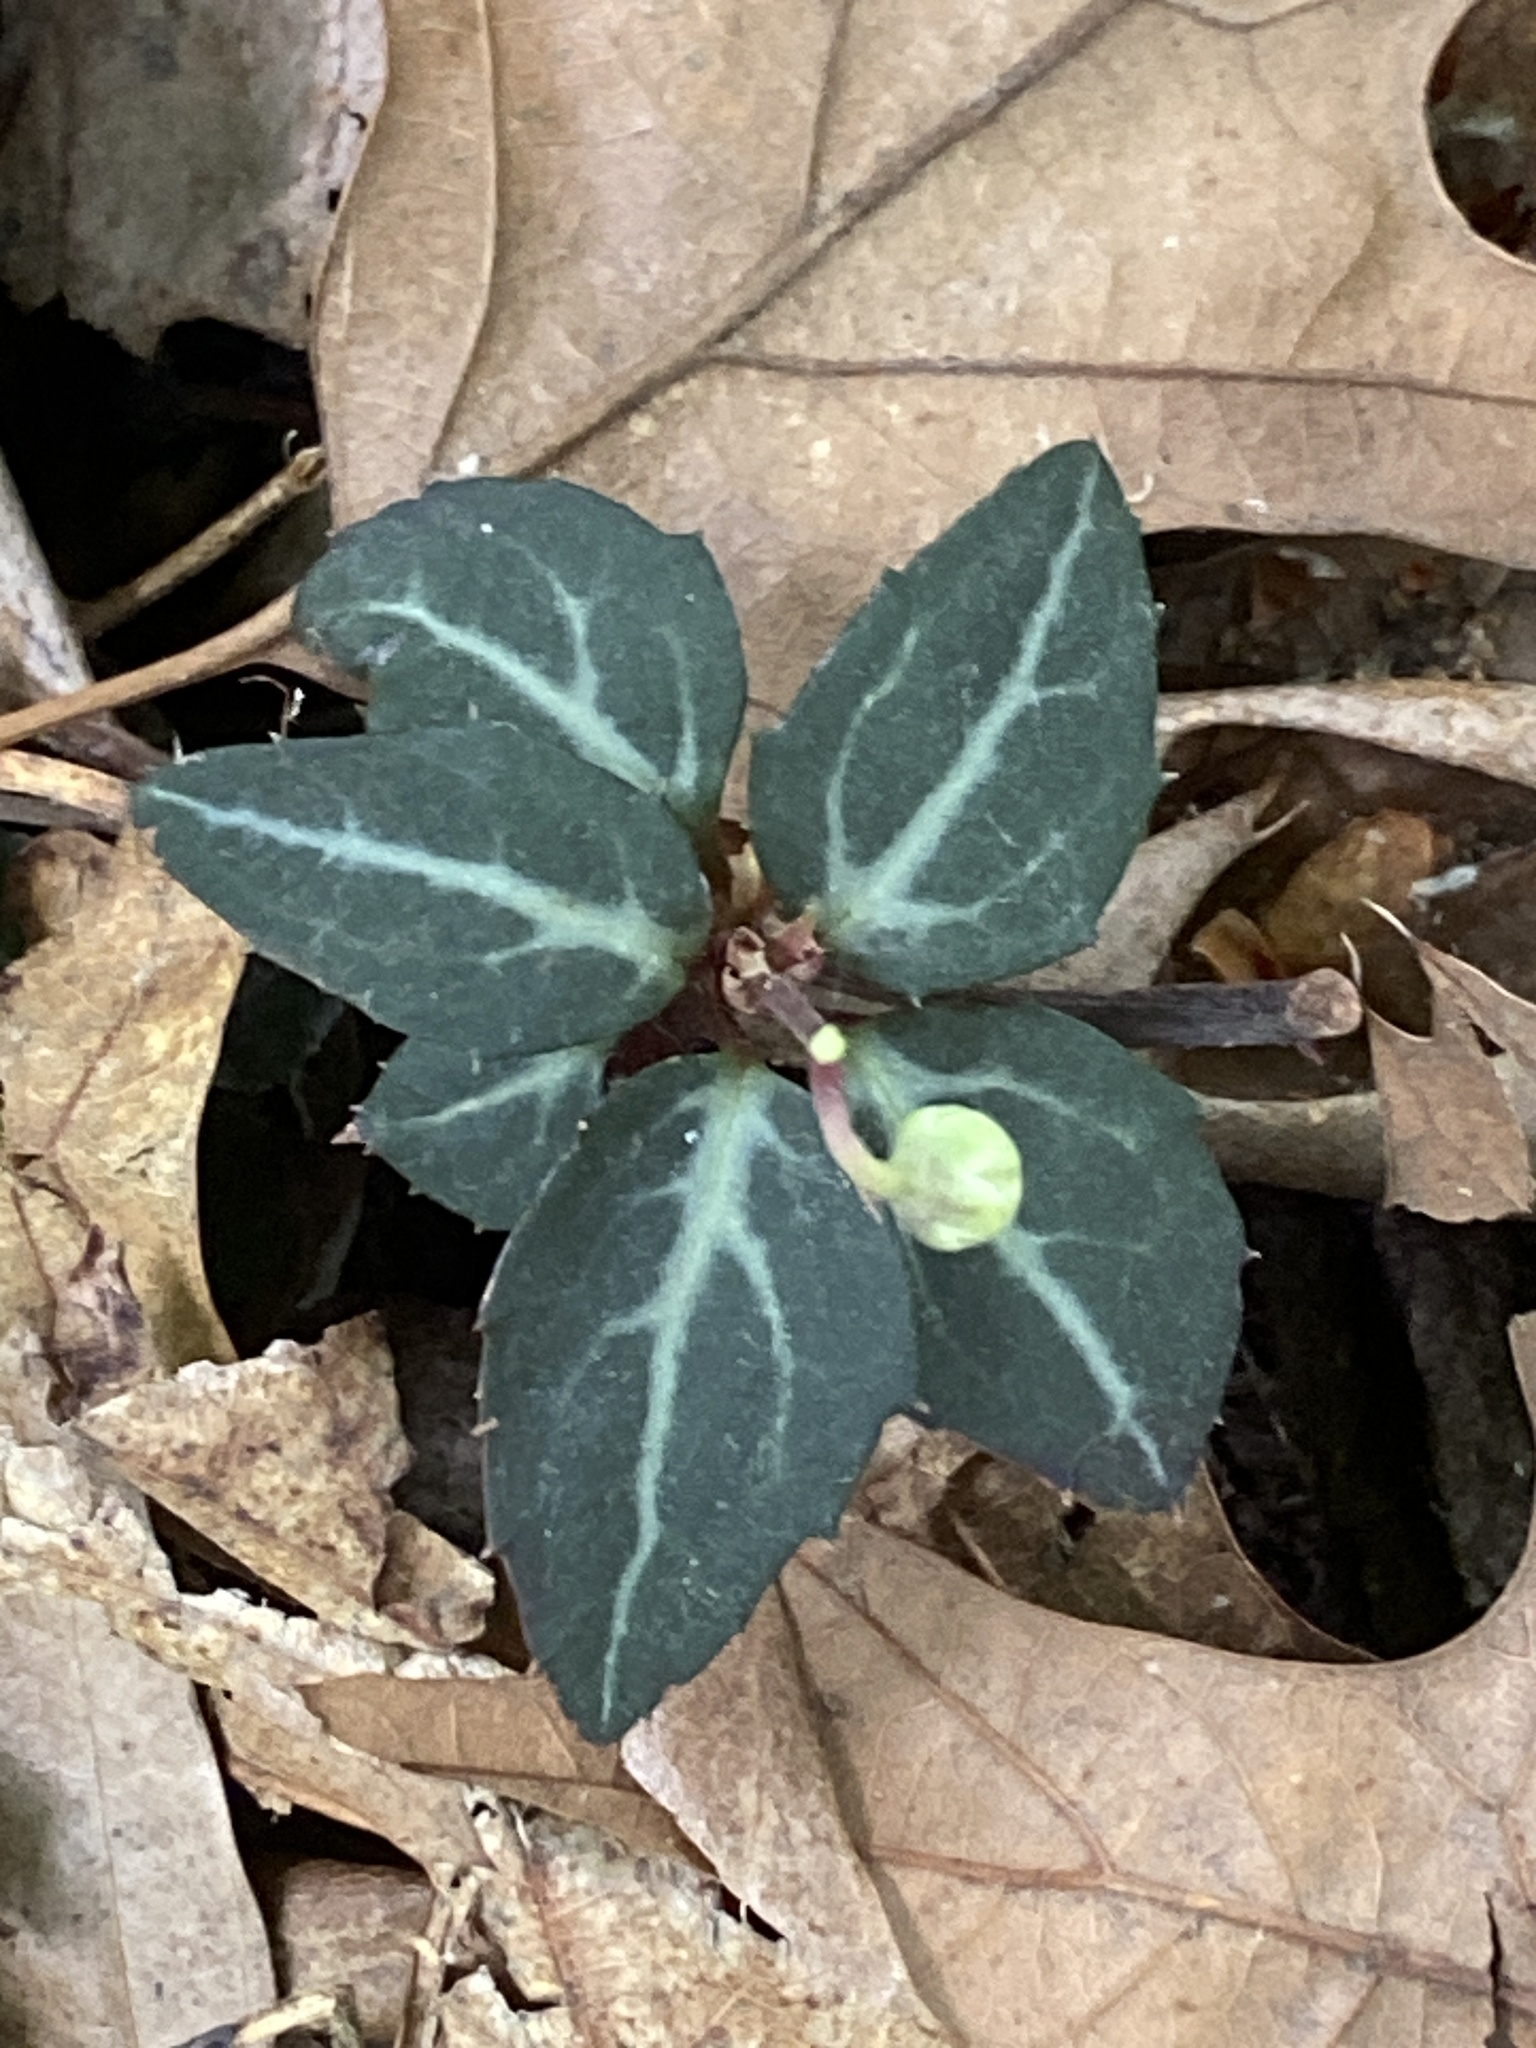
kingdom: Plantae
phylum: Tracheophyta
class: Magnoliopsida
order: Ericales
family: Ericaceae
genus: Chimaphila
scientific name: Chimaphila maculata
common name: Spotted pipsissewa
